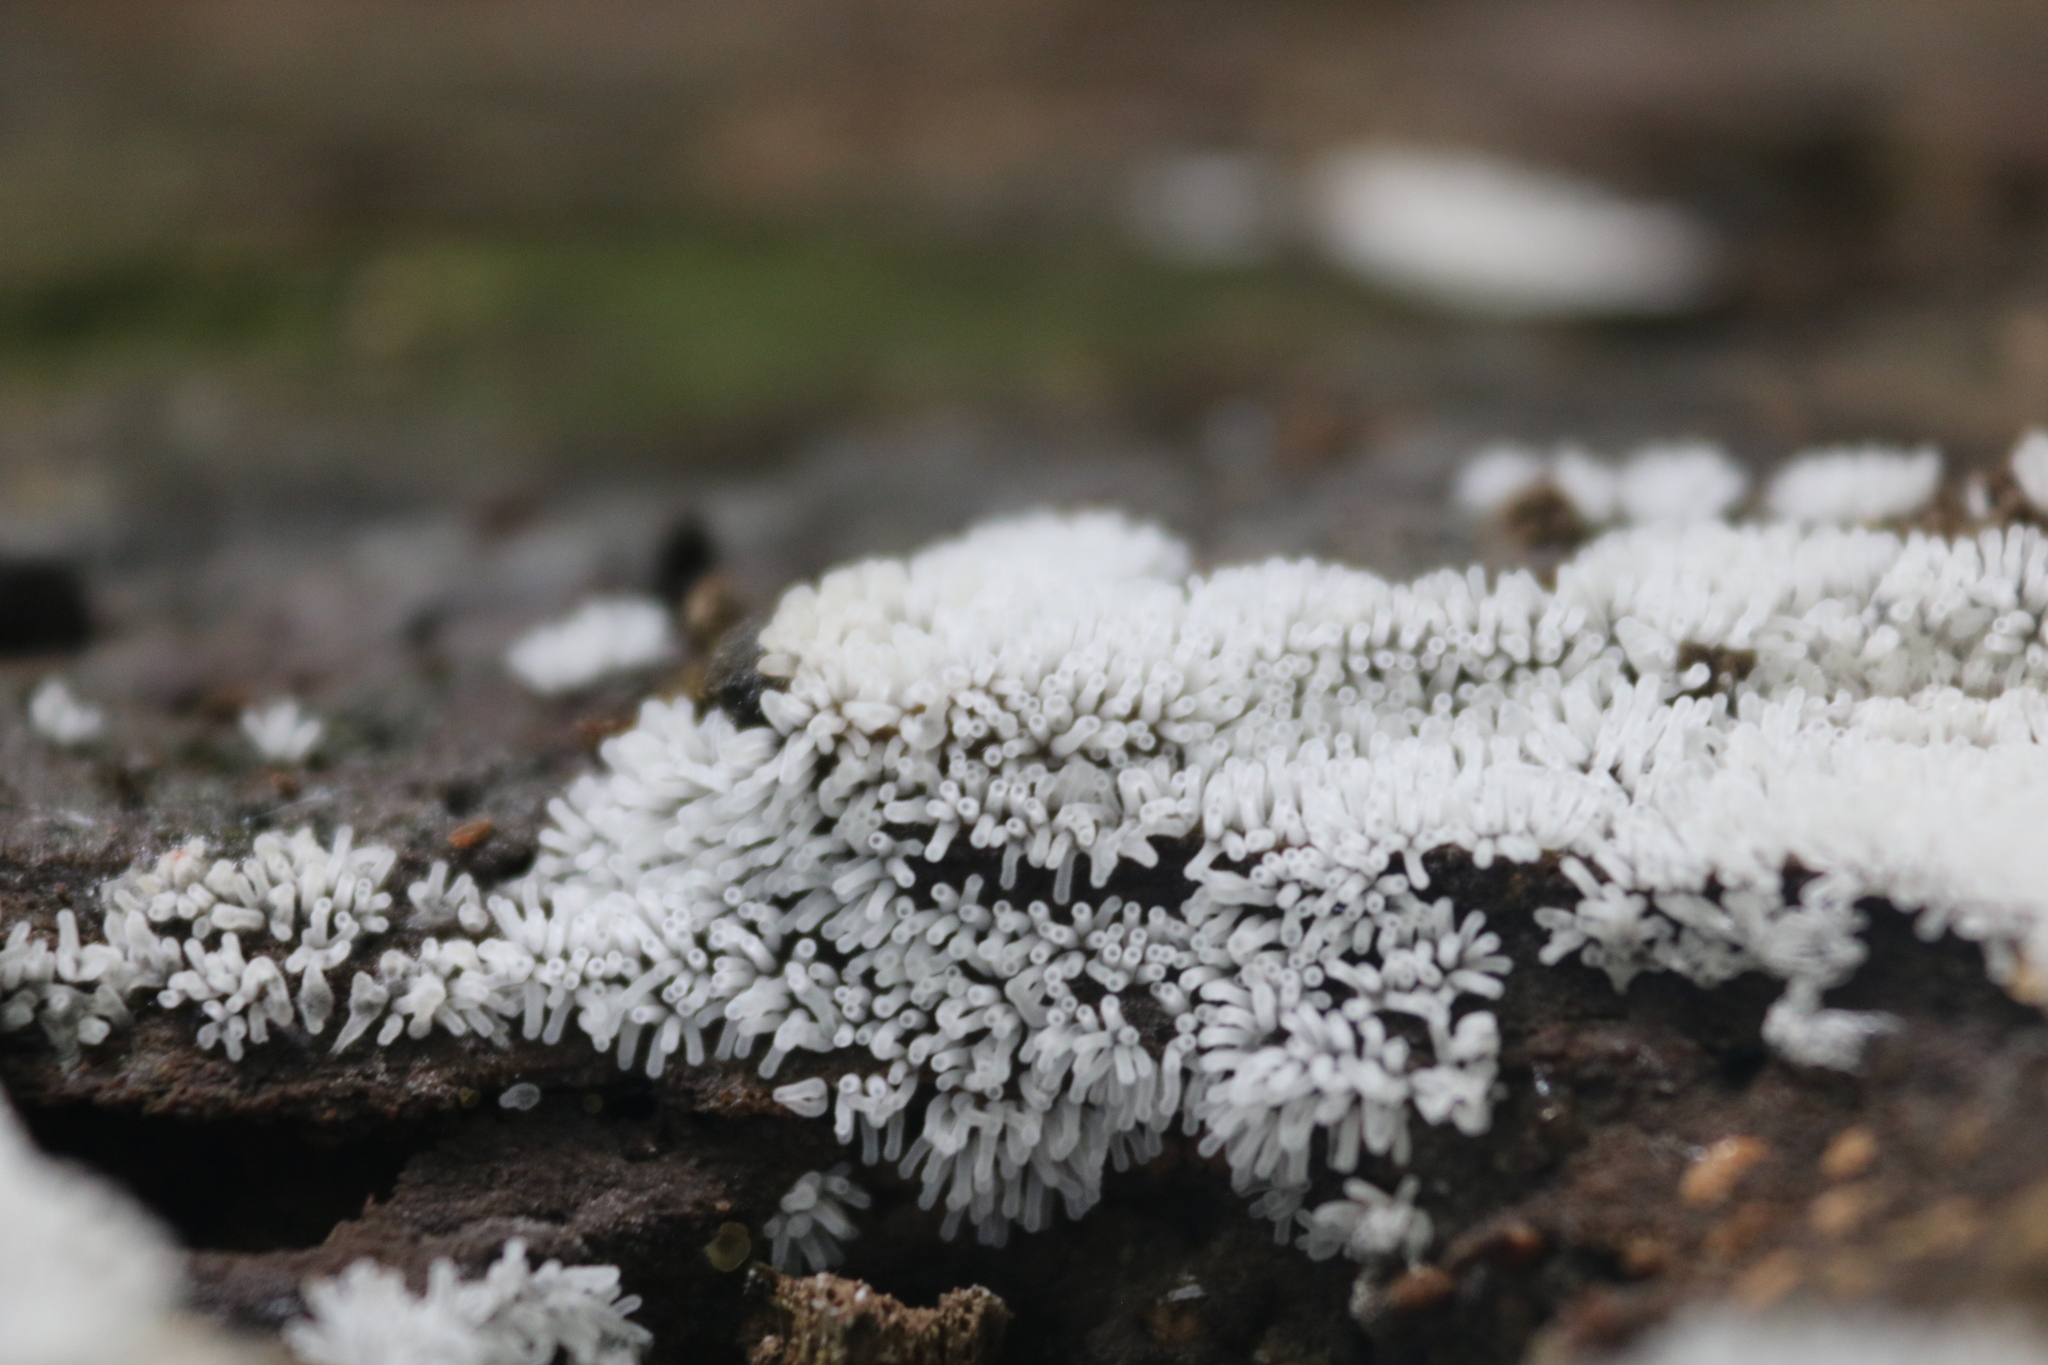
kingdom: Protozoa
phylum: Mycetozoa
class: Protosteliomycetes
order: Ceratiomyxales
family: Ceratiomyxaceae
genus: Ceratiomyxa
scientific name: Ceratiomyxa fruticulosa
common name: Honeycomb coral slime mold
